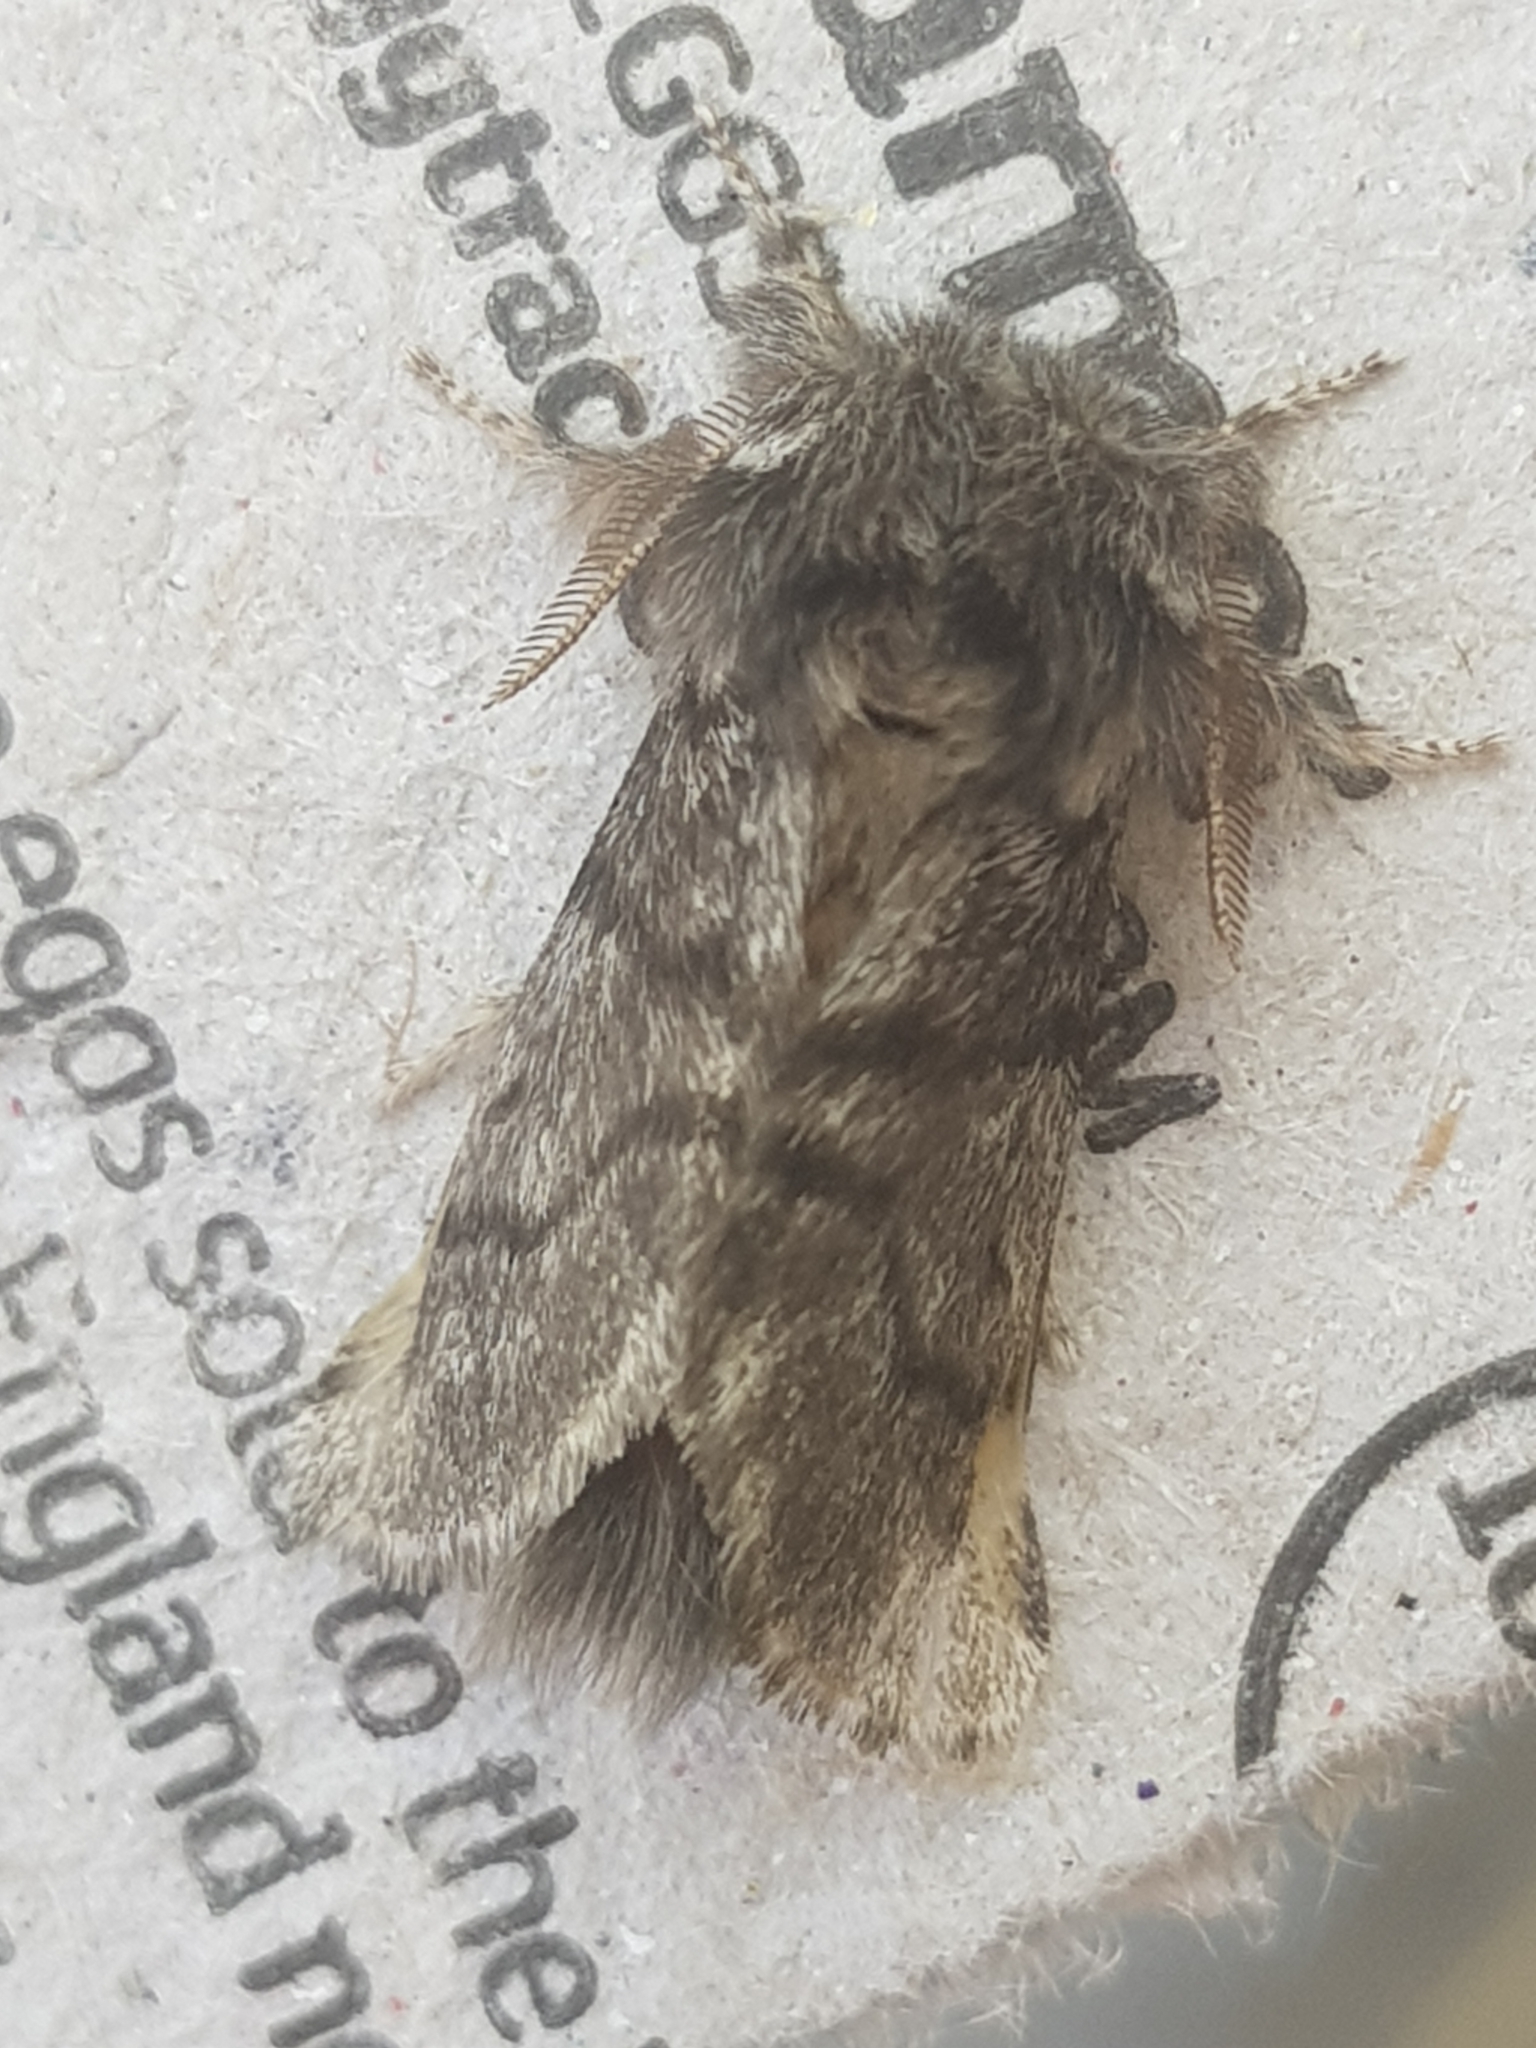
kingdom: Animalia
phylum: Arthropoda
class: Insecta
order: Lepidoptera
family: Notodontidae
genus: Thaumetopoea
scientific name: Thaumetopoea processionea
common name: Oak processionea
